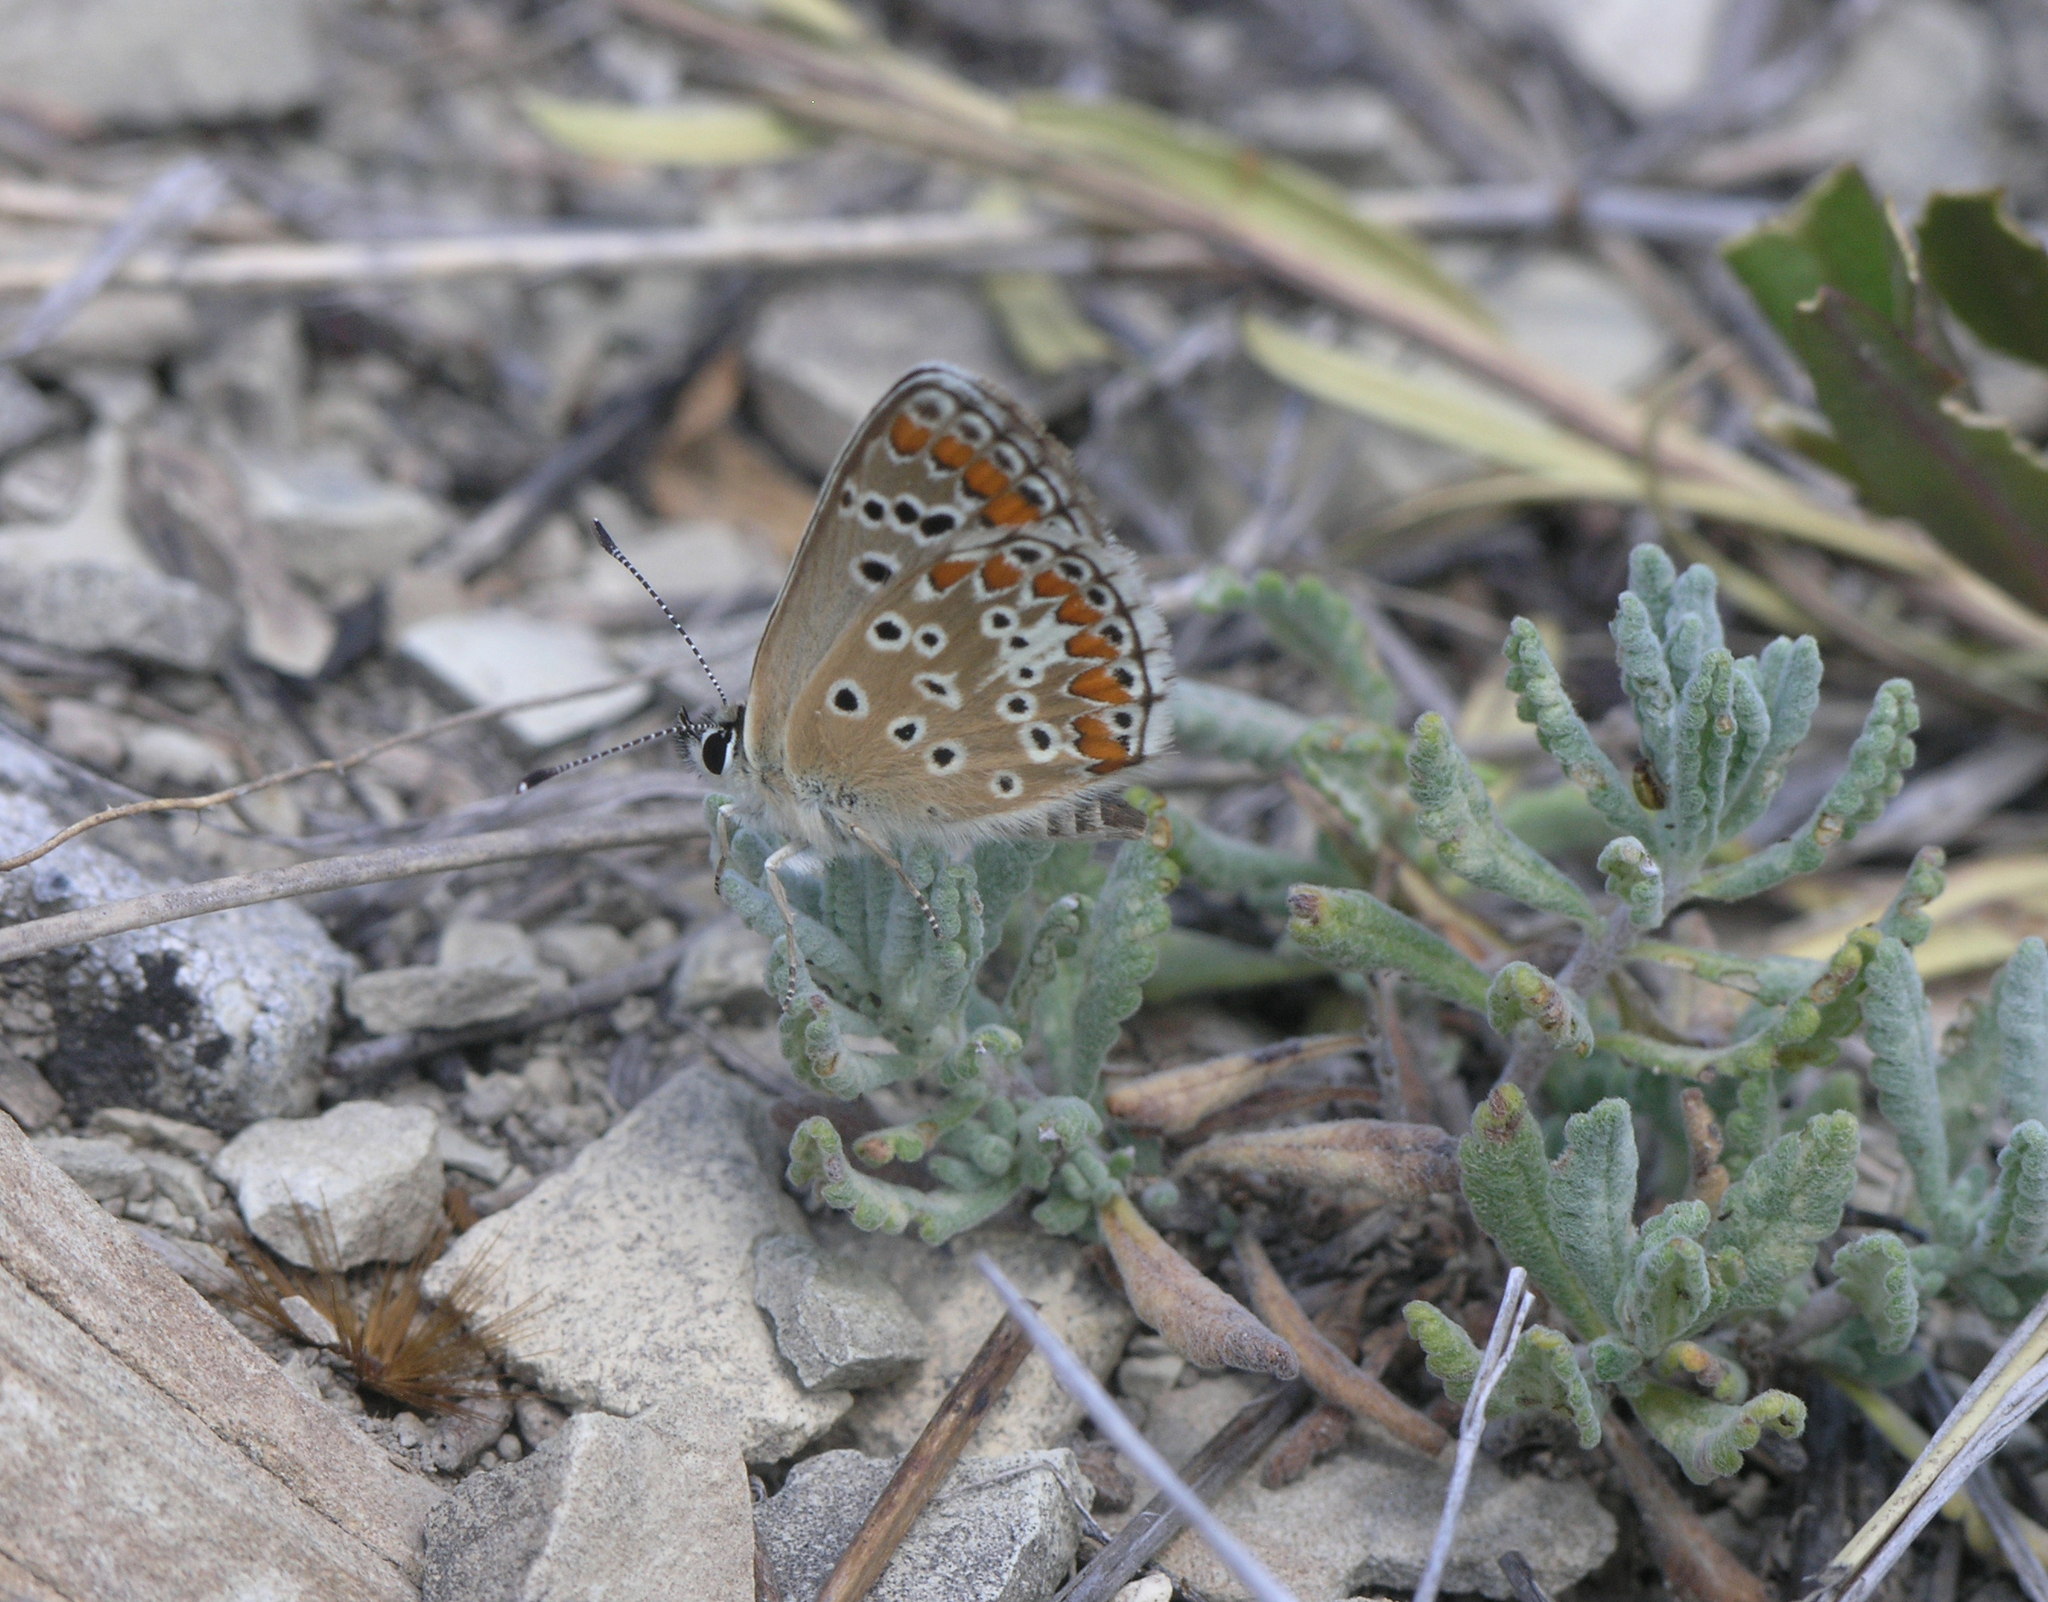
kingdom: Animalia
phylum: Arthropoda
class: Insecta
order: Lepidoptera
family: Lycaenidae
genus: Aricia
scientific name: Aricia agestis
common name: Brown argus
